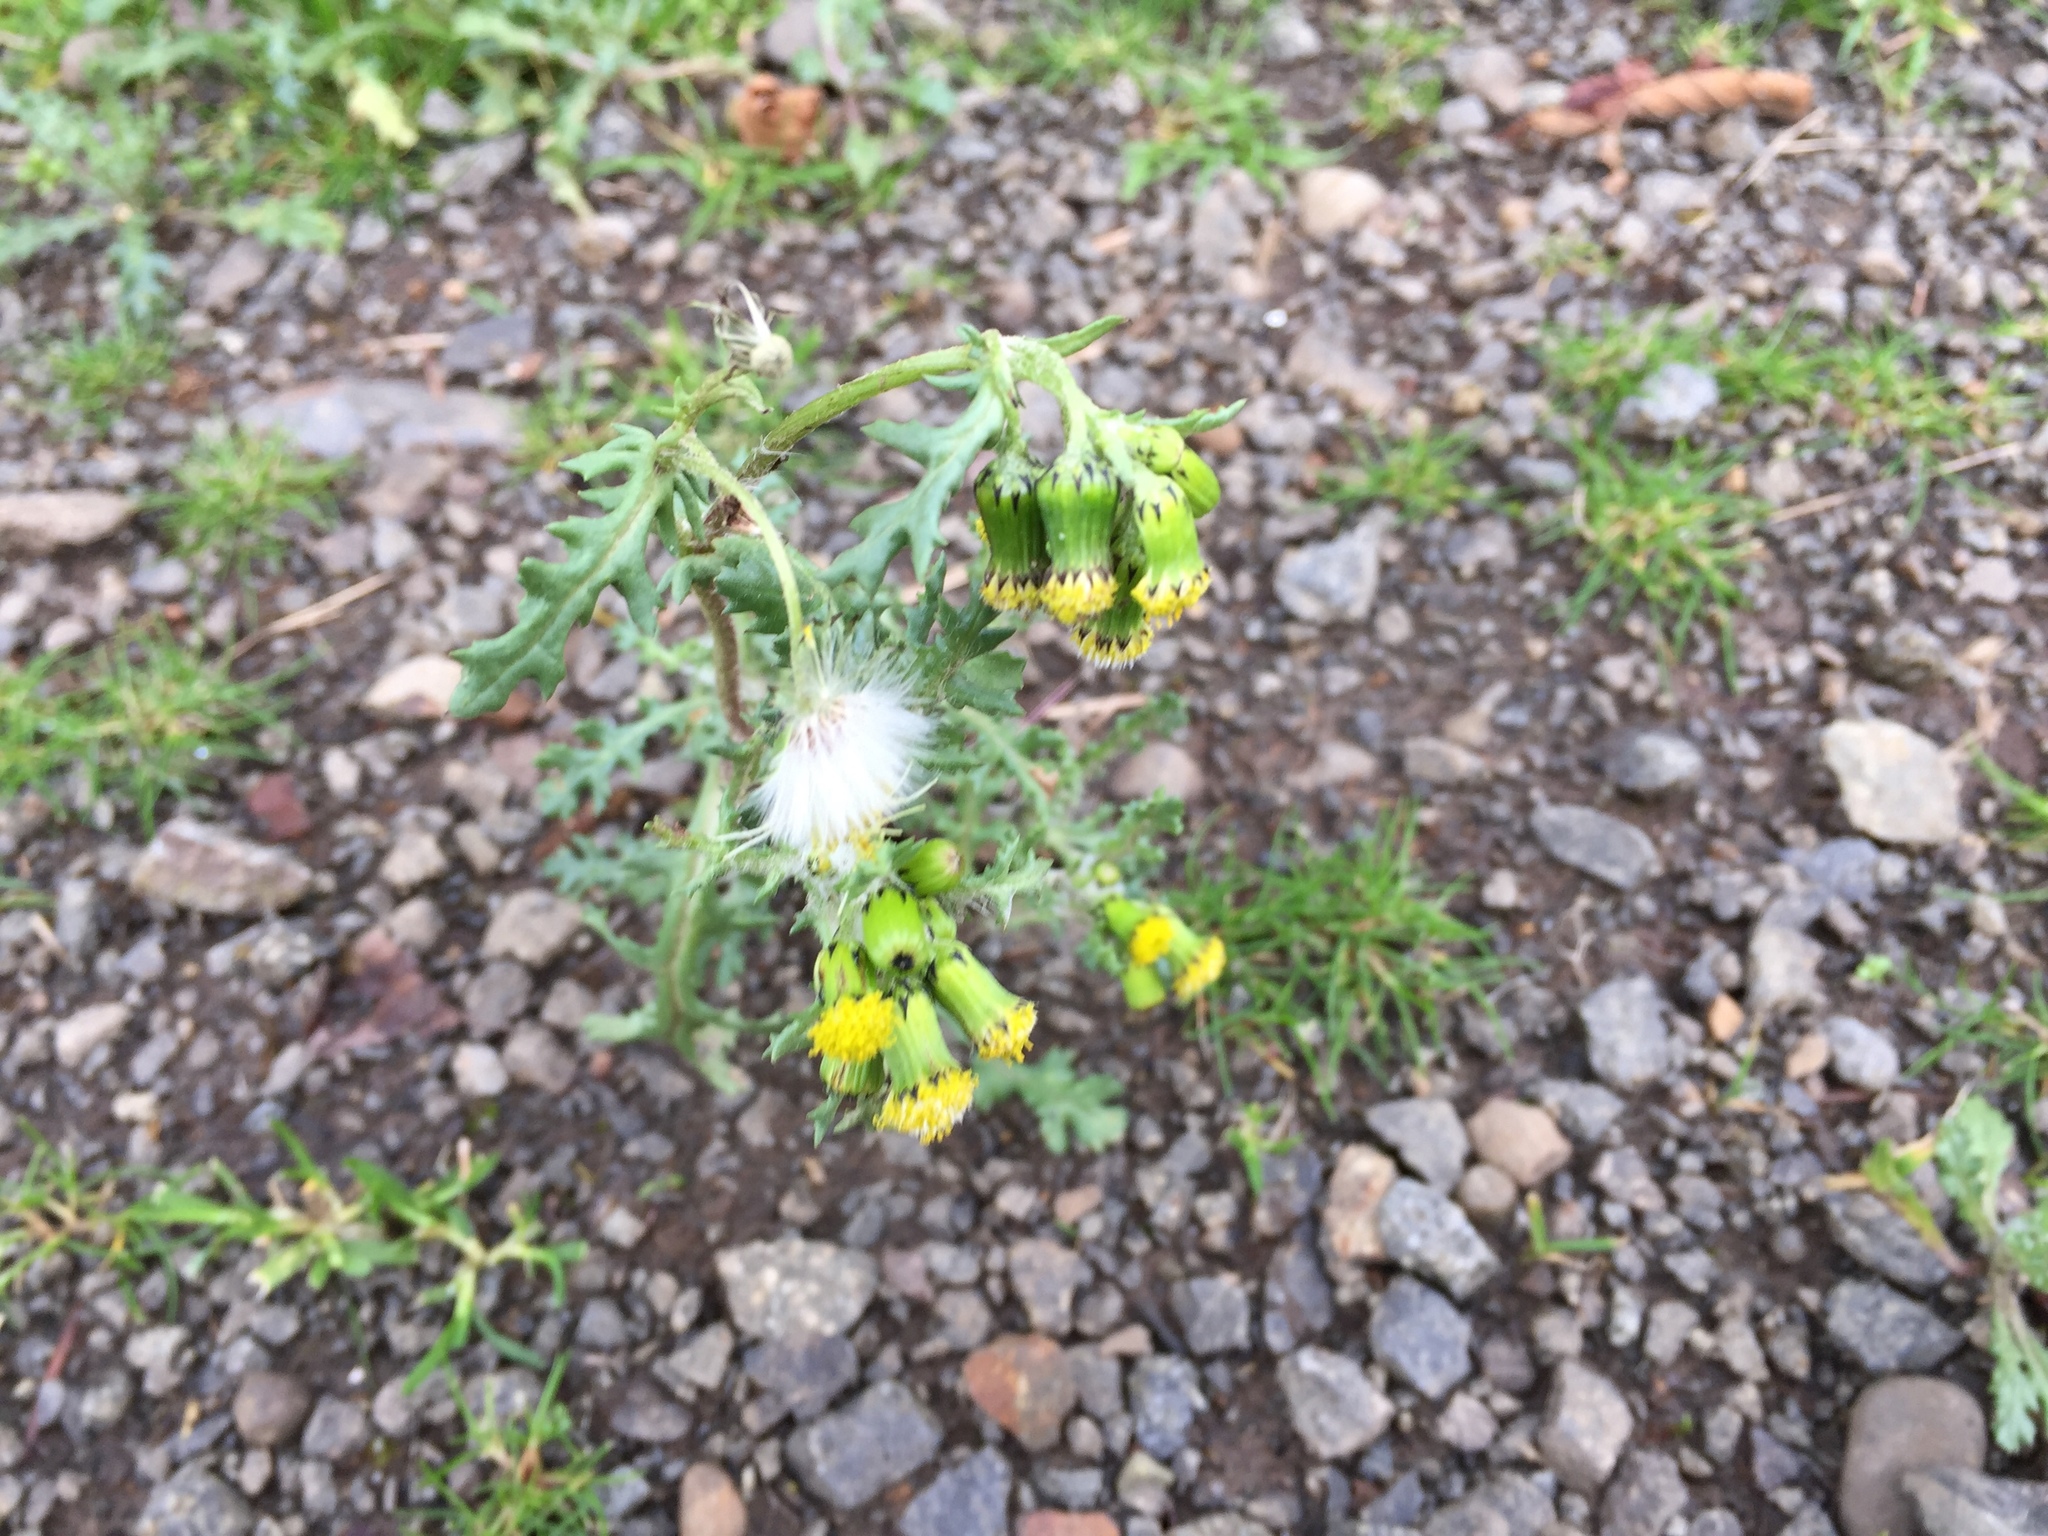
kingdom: Plantae
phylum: Tracheophyta
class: Magnoliopsida
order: Asterales
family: Asteraceae
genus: Senecio
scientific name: Senecio vulgaris
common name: Old-man-in-the-spring
